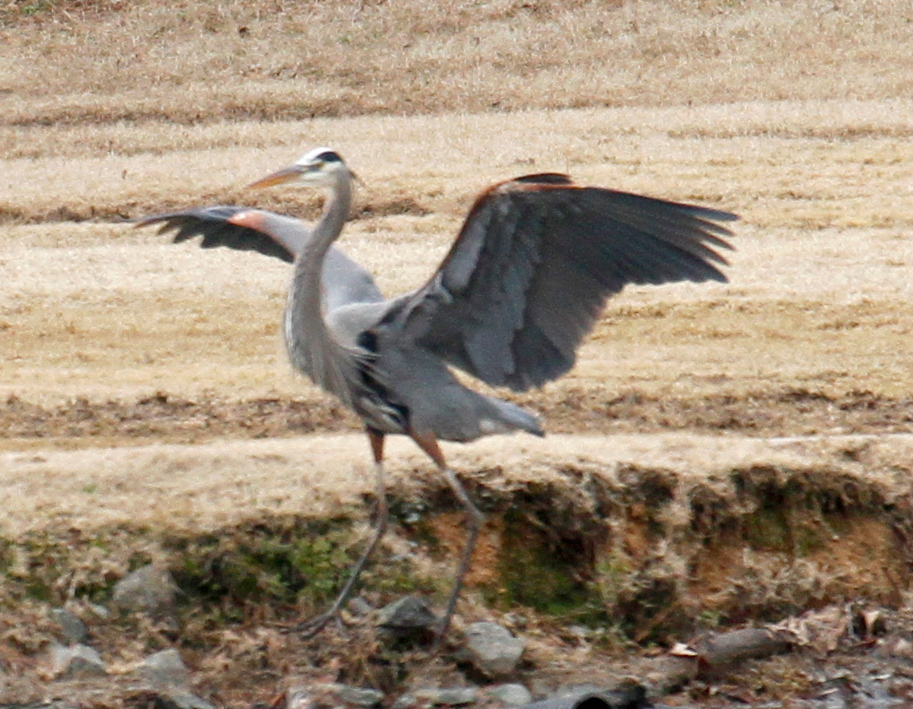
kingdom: Animalia
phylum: Chordata
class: Aves
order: Pelecaniformes
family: Ardeidae
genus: Ardea
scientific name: Ardea herodias
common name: Great blue heron
